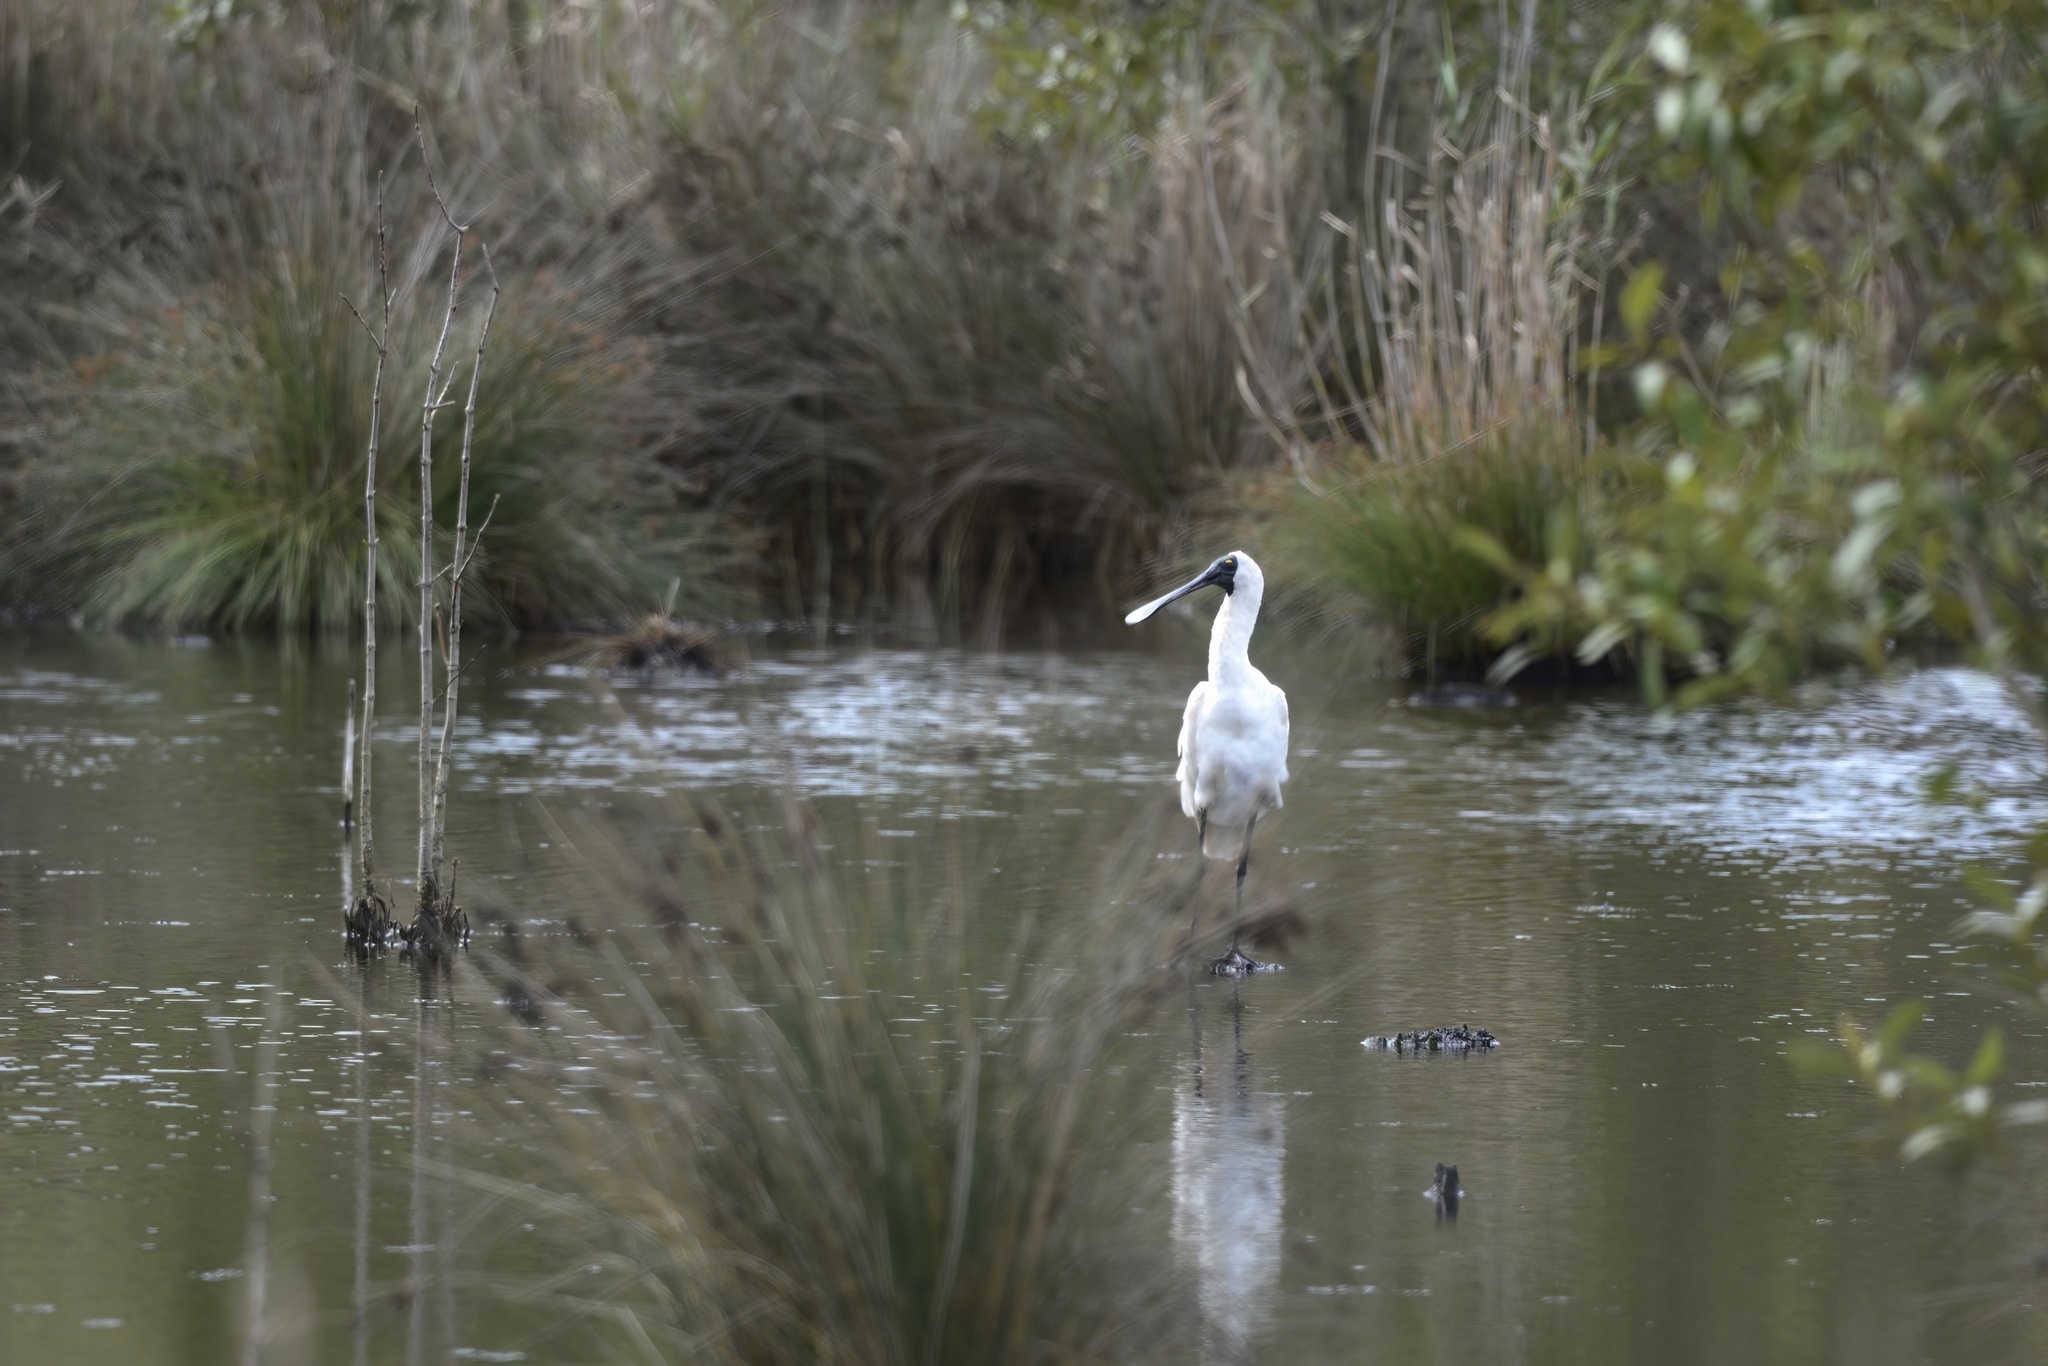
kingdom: Animalia
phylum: Chordata
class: Aves
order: Pelecaniformes
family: Threskiornithidae
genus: Platalea
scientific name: Platalea regia
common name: Royal spoonbill
